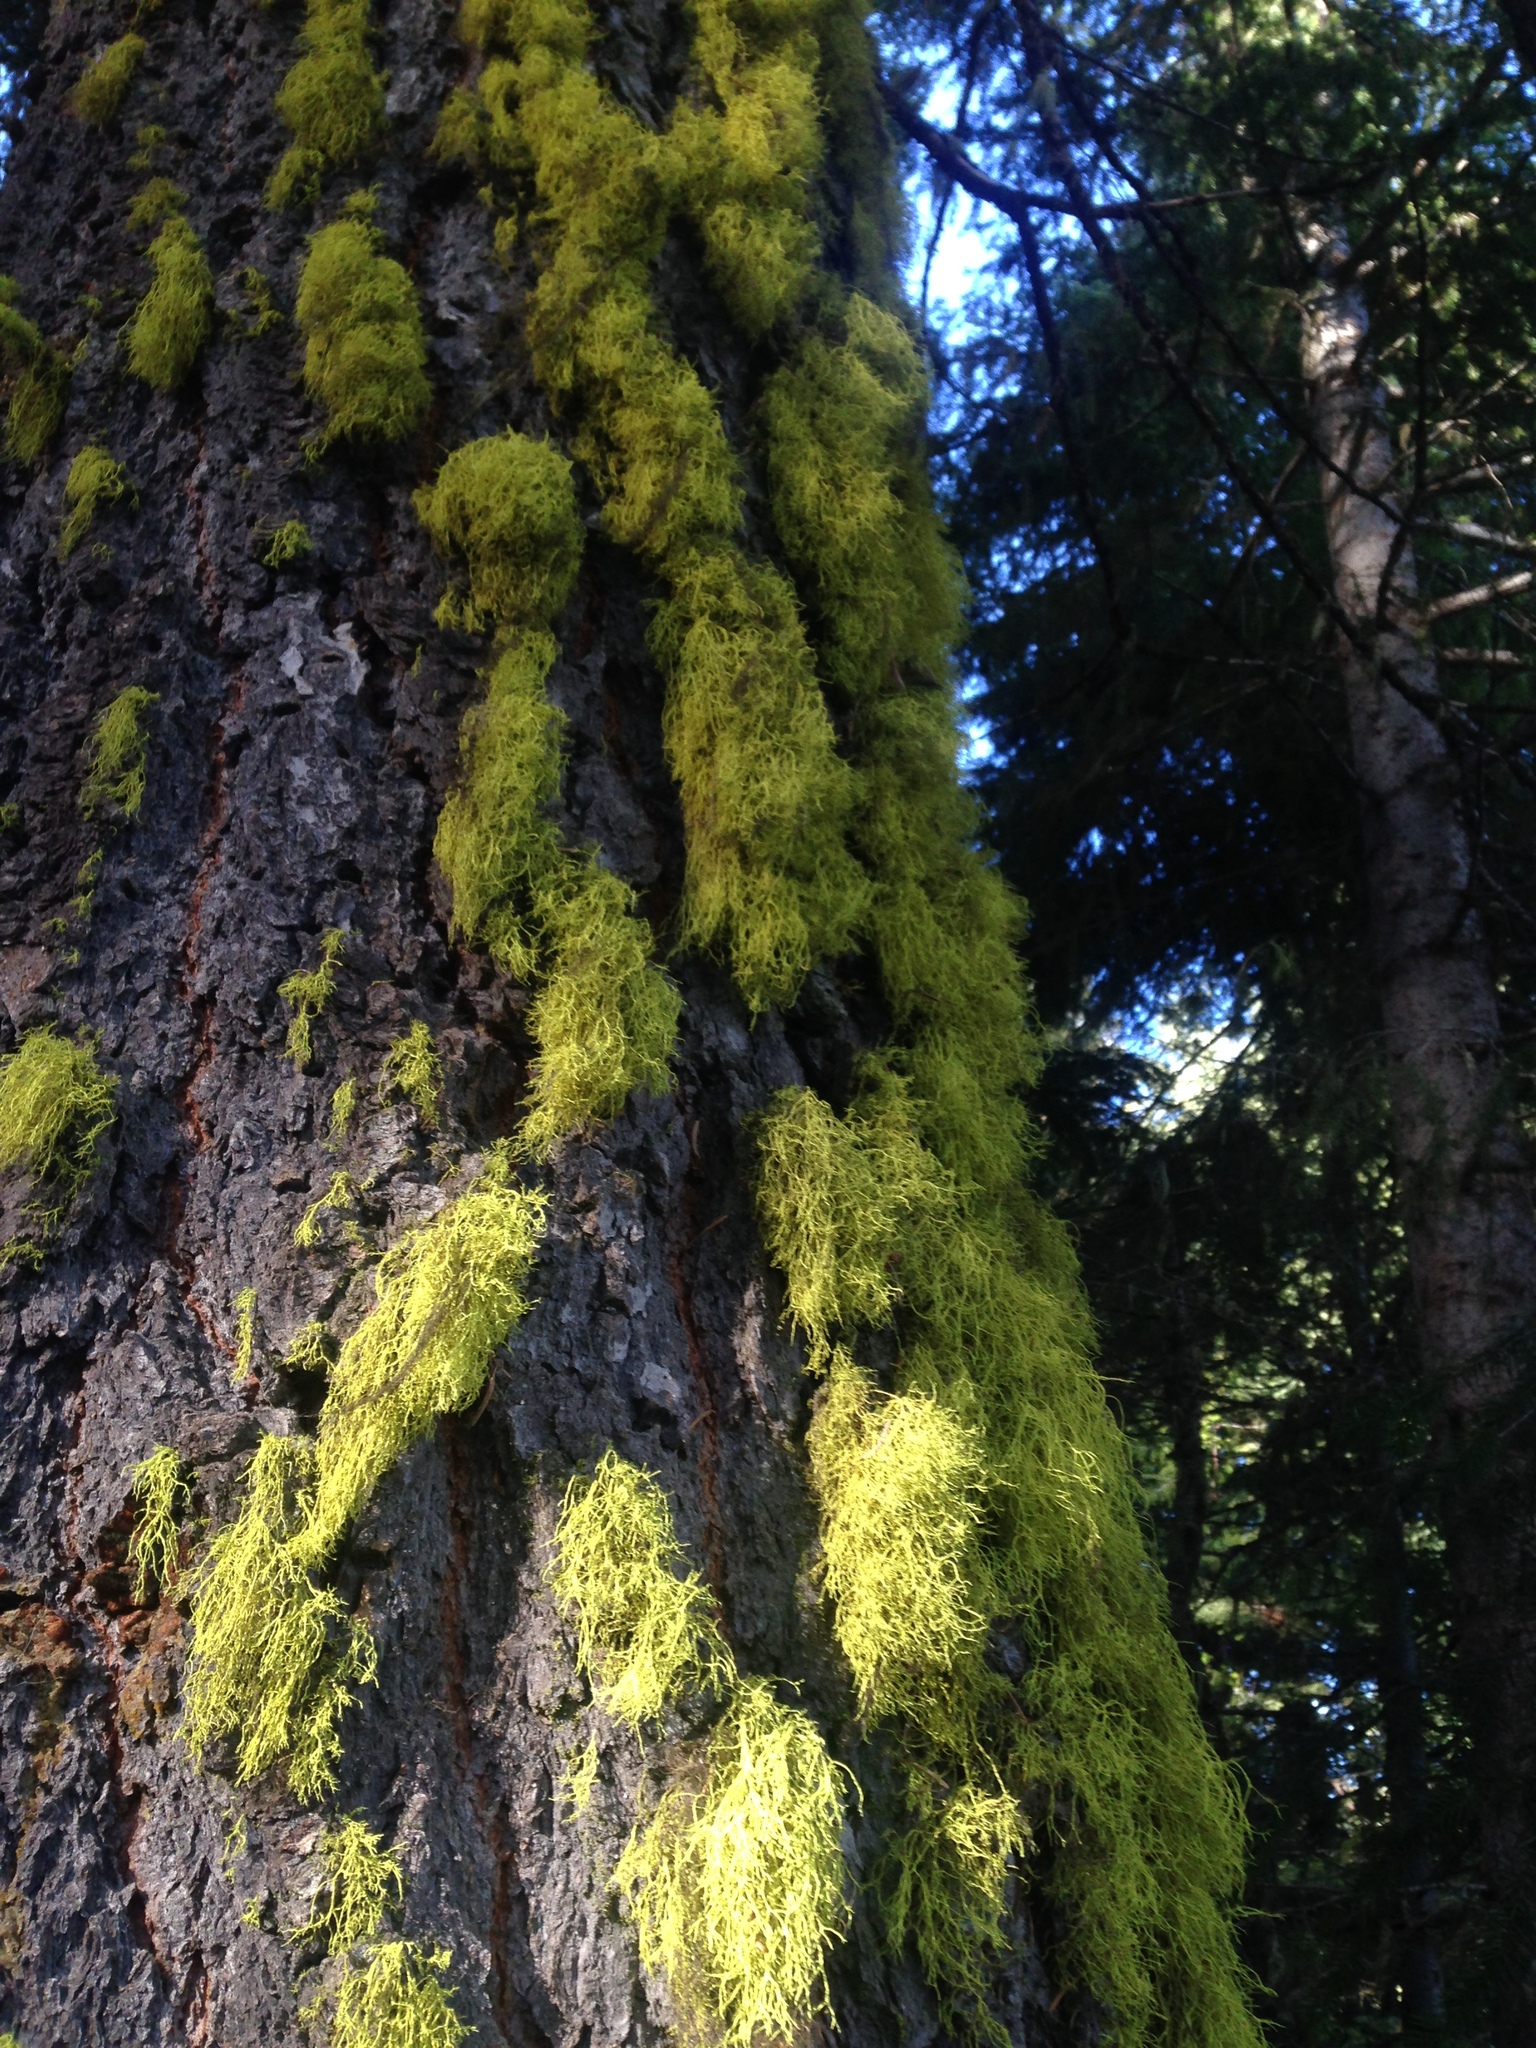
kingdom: Fungi
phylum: Ascomycota
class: Lecanoromycetes
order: Lecanorales
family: Parmeliaceae
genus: Letharia
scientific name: Letharia vulpina
